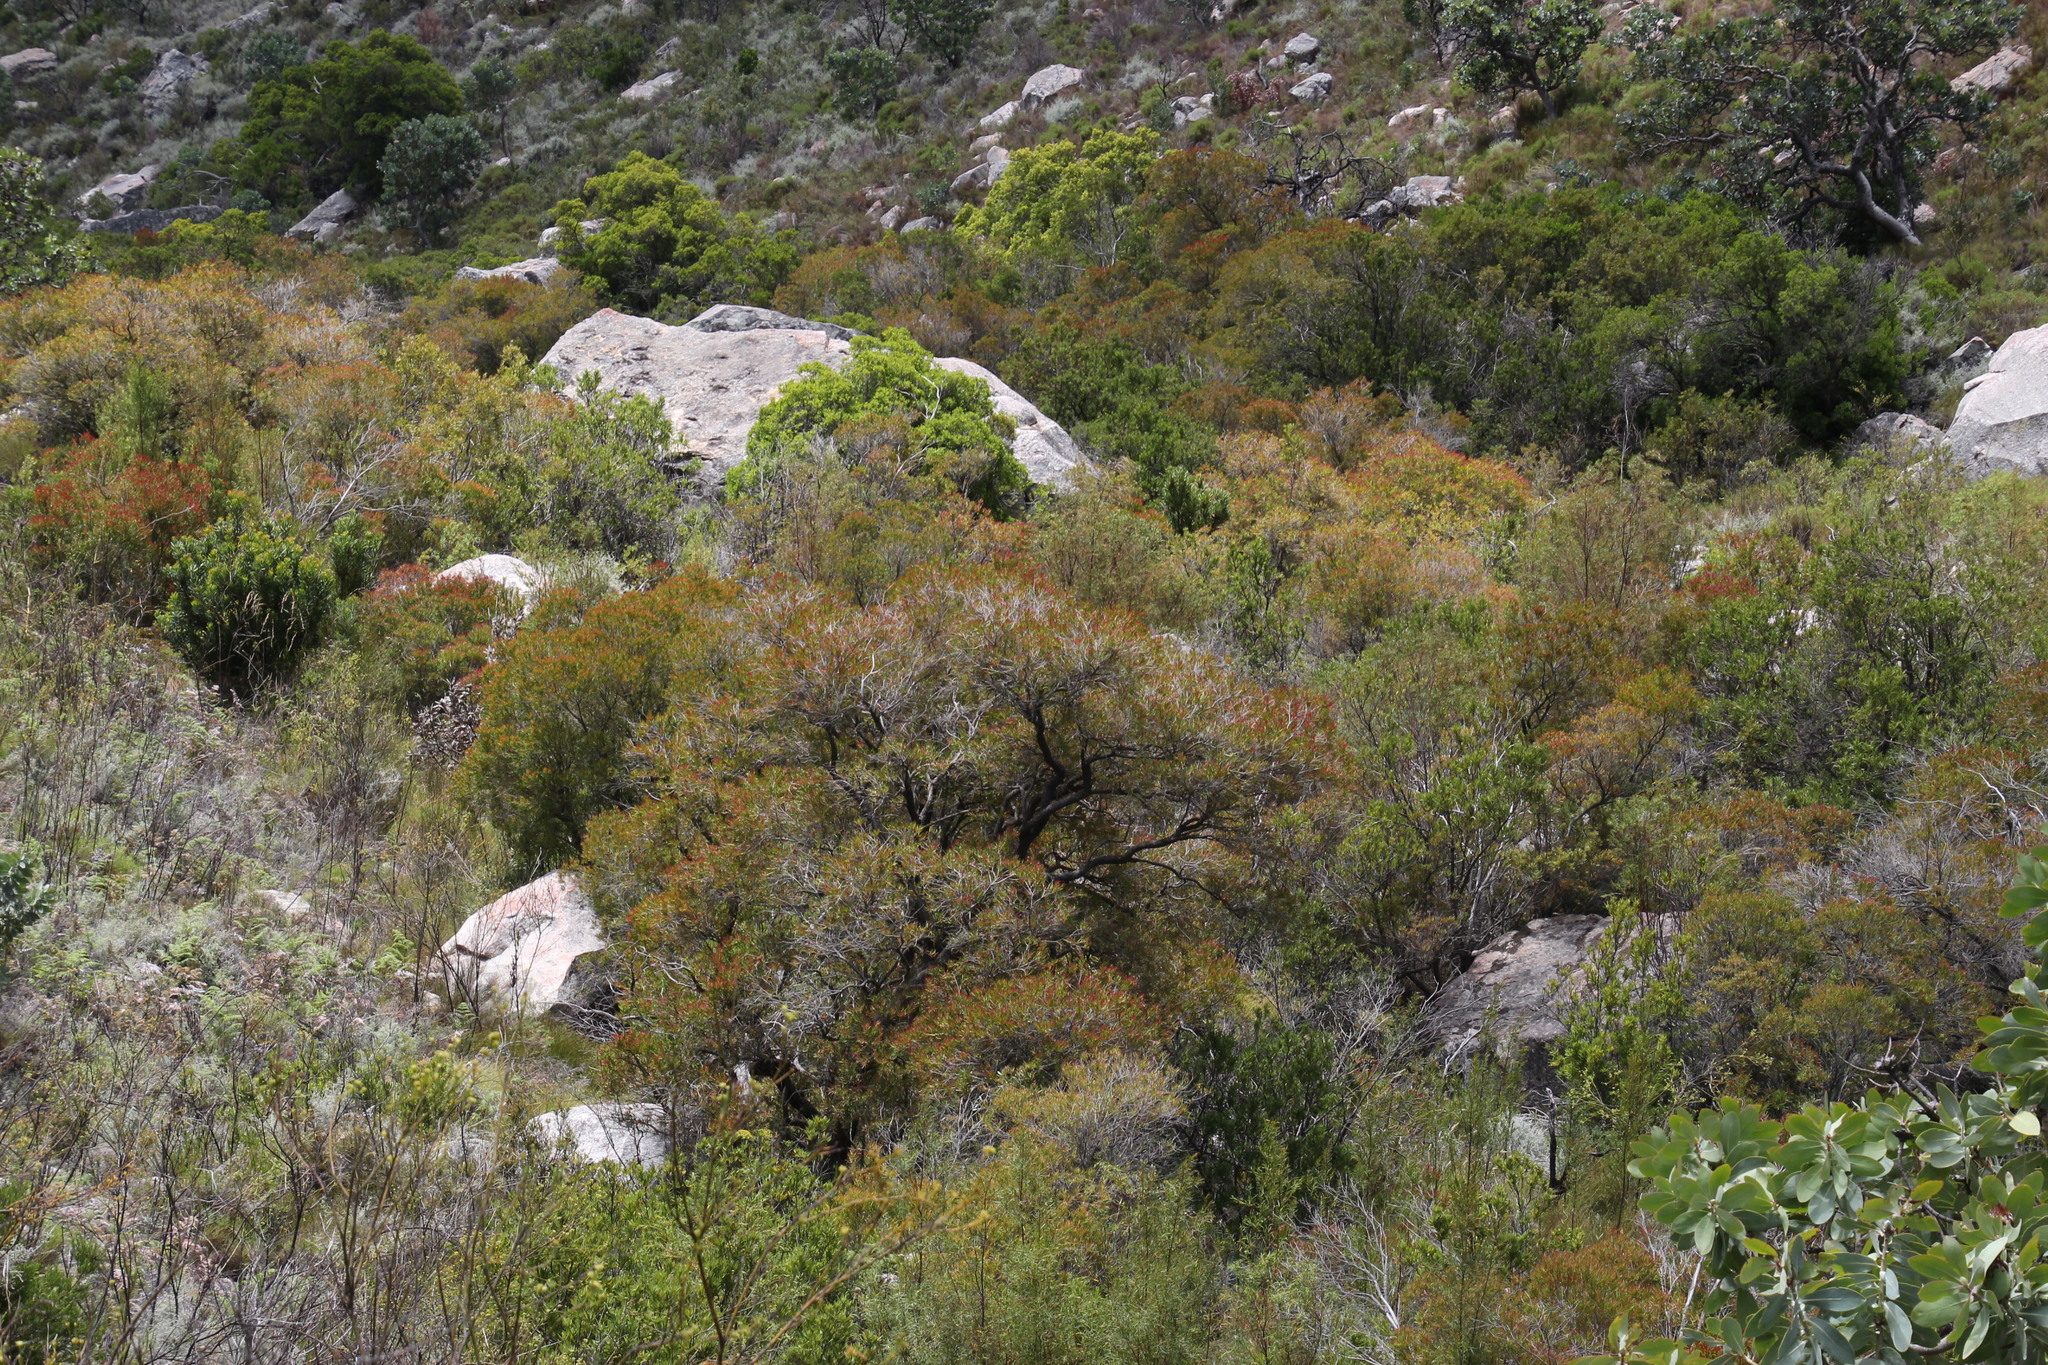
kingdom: Plantae
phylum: Tracheophyta
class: Magnoliopsida
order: Myrtales
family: Myrtaceae
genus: Callistemon
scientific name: Callistemon lanceolatus
